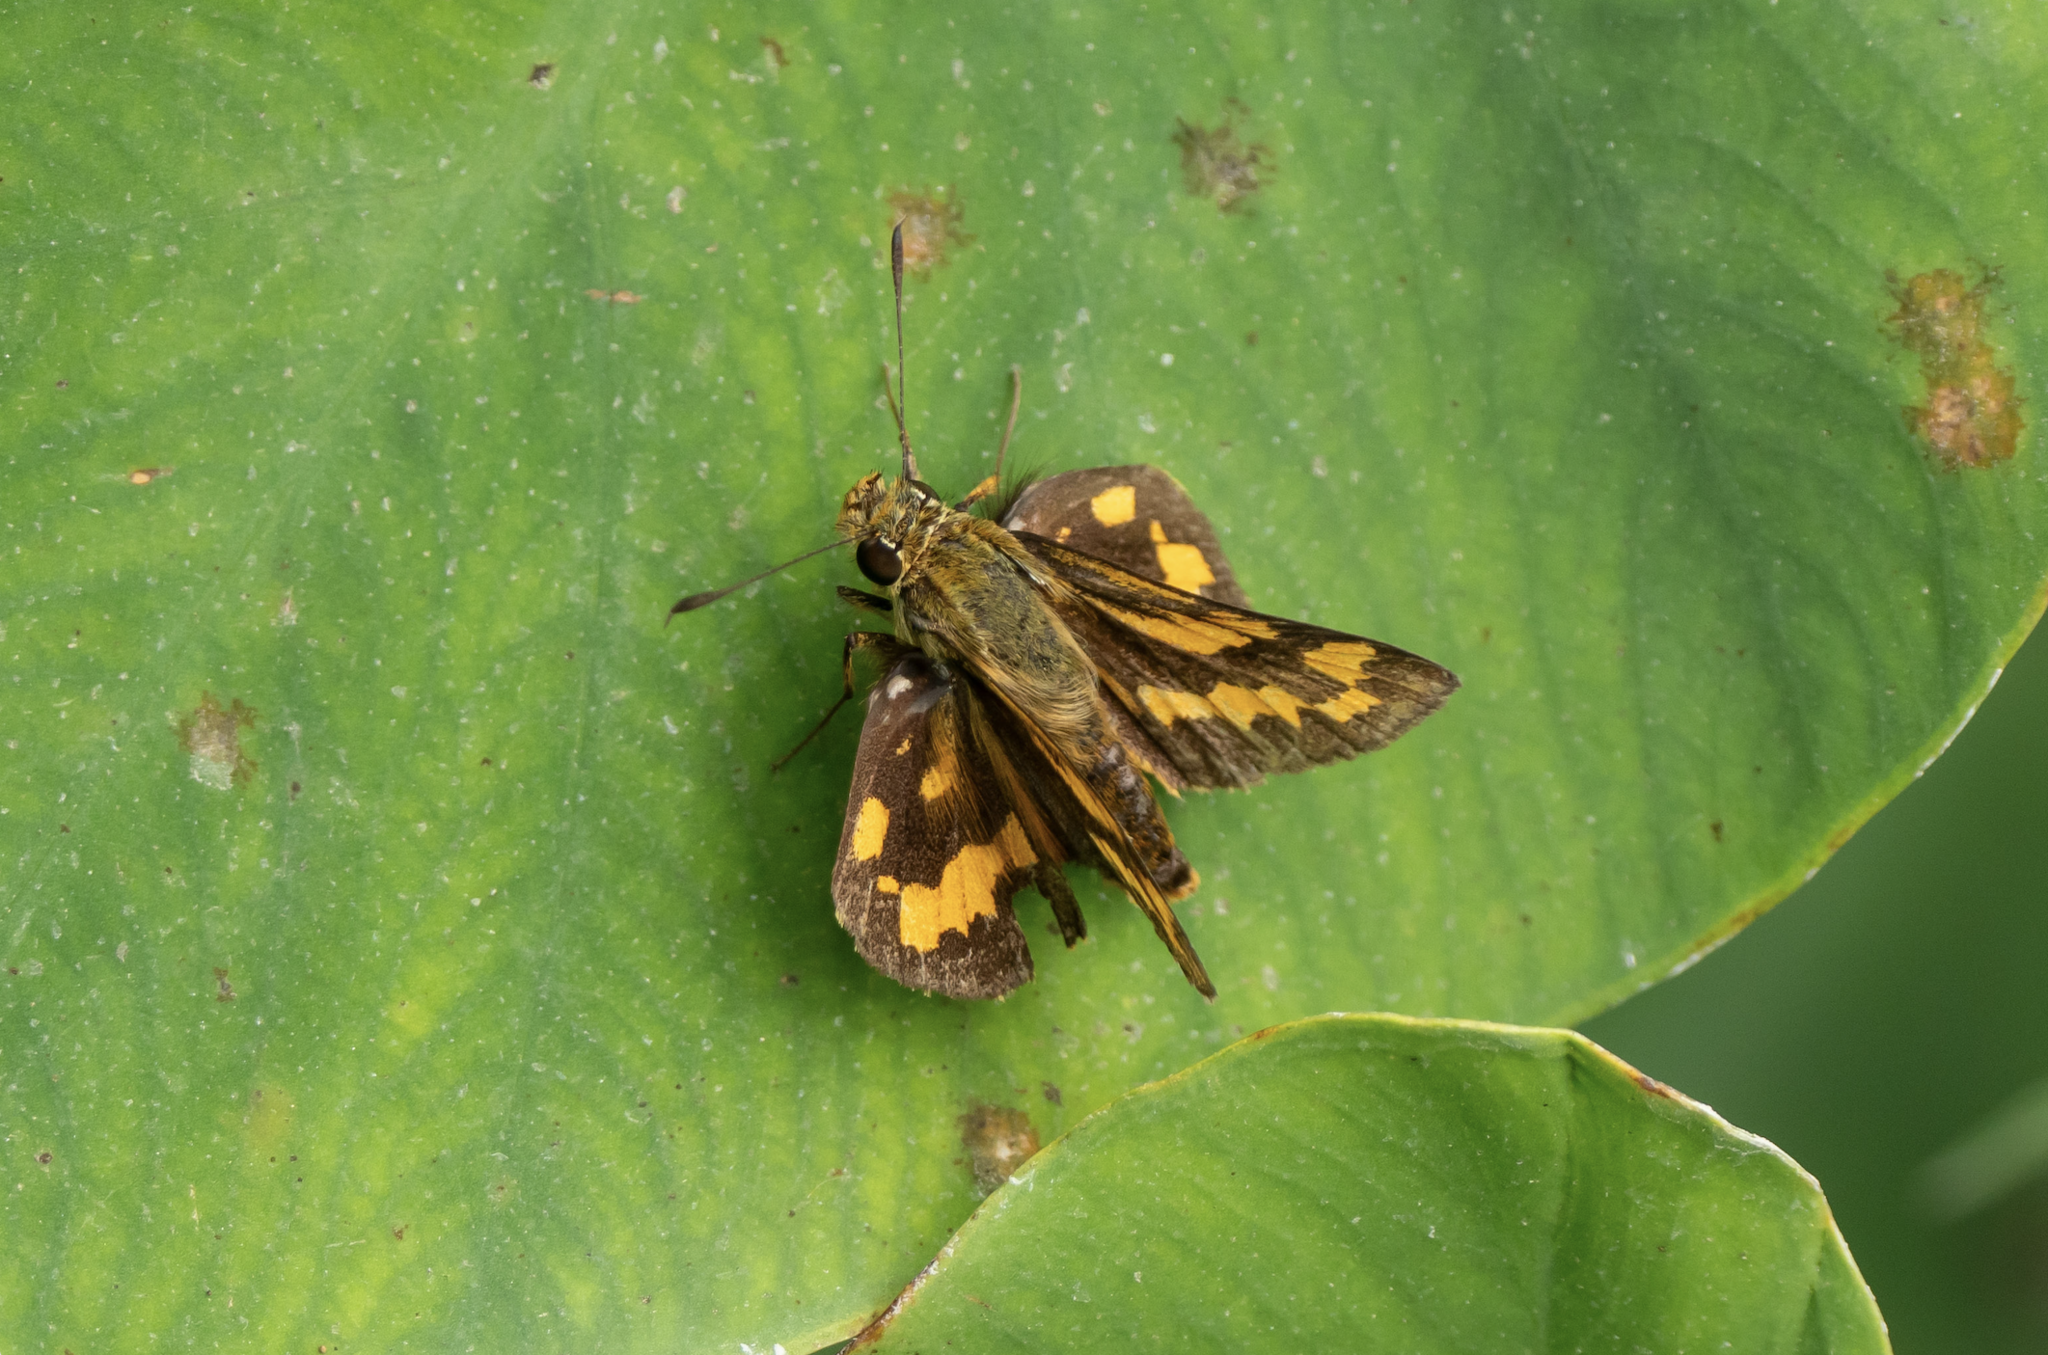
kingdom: Animalia
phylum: Arthropoda
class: Insecta
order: Lepidoptera
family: Hesperiidae
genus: Potanthus
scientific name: Potanthus pseudomaesa
